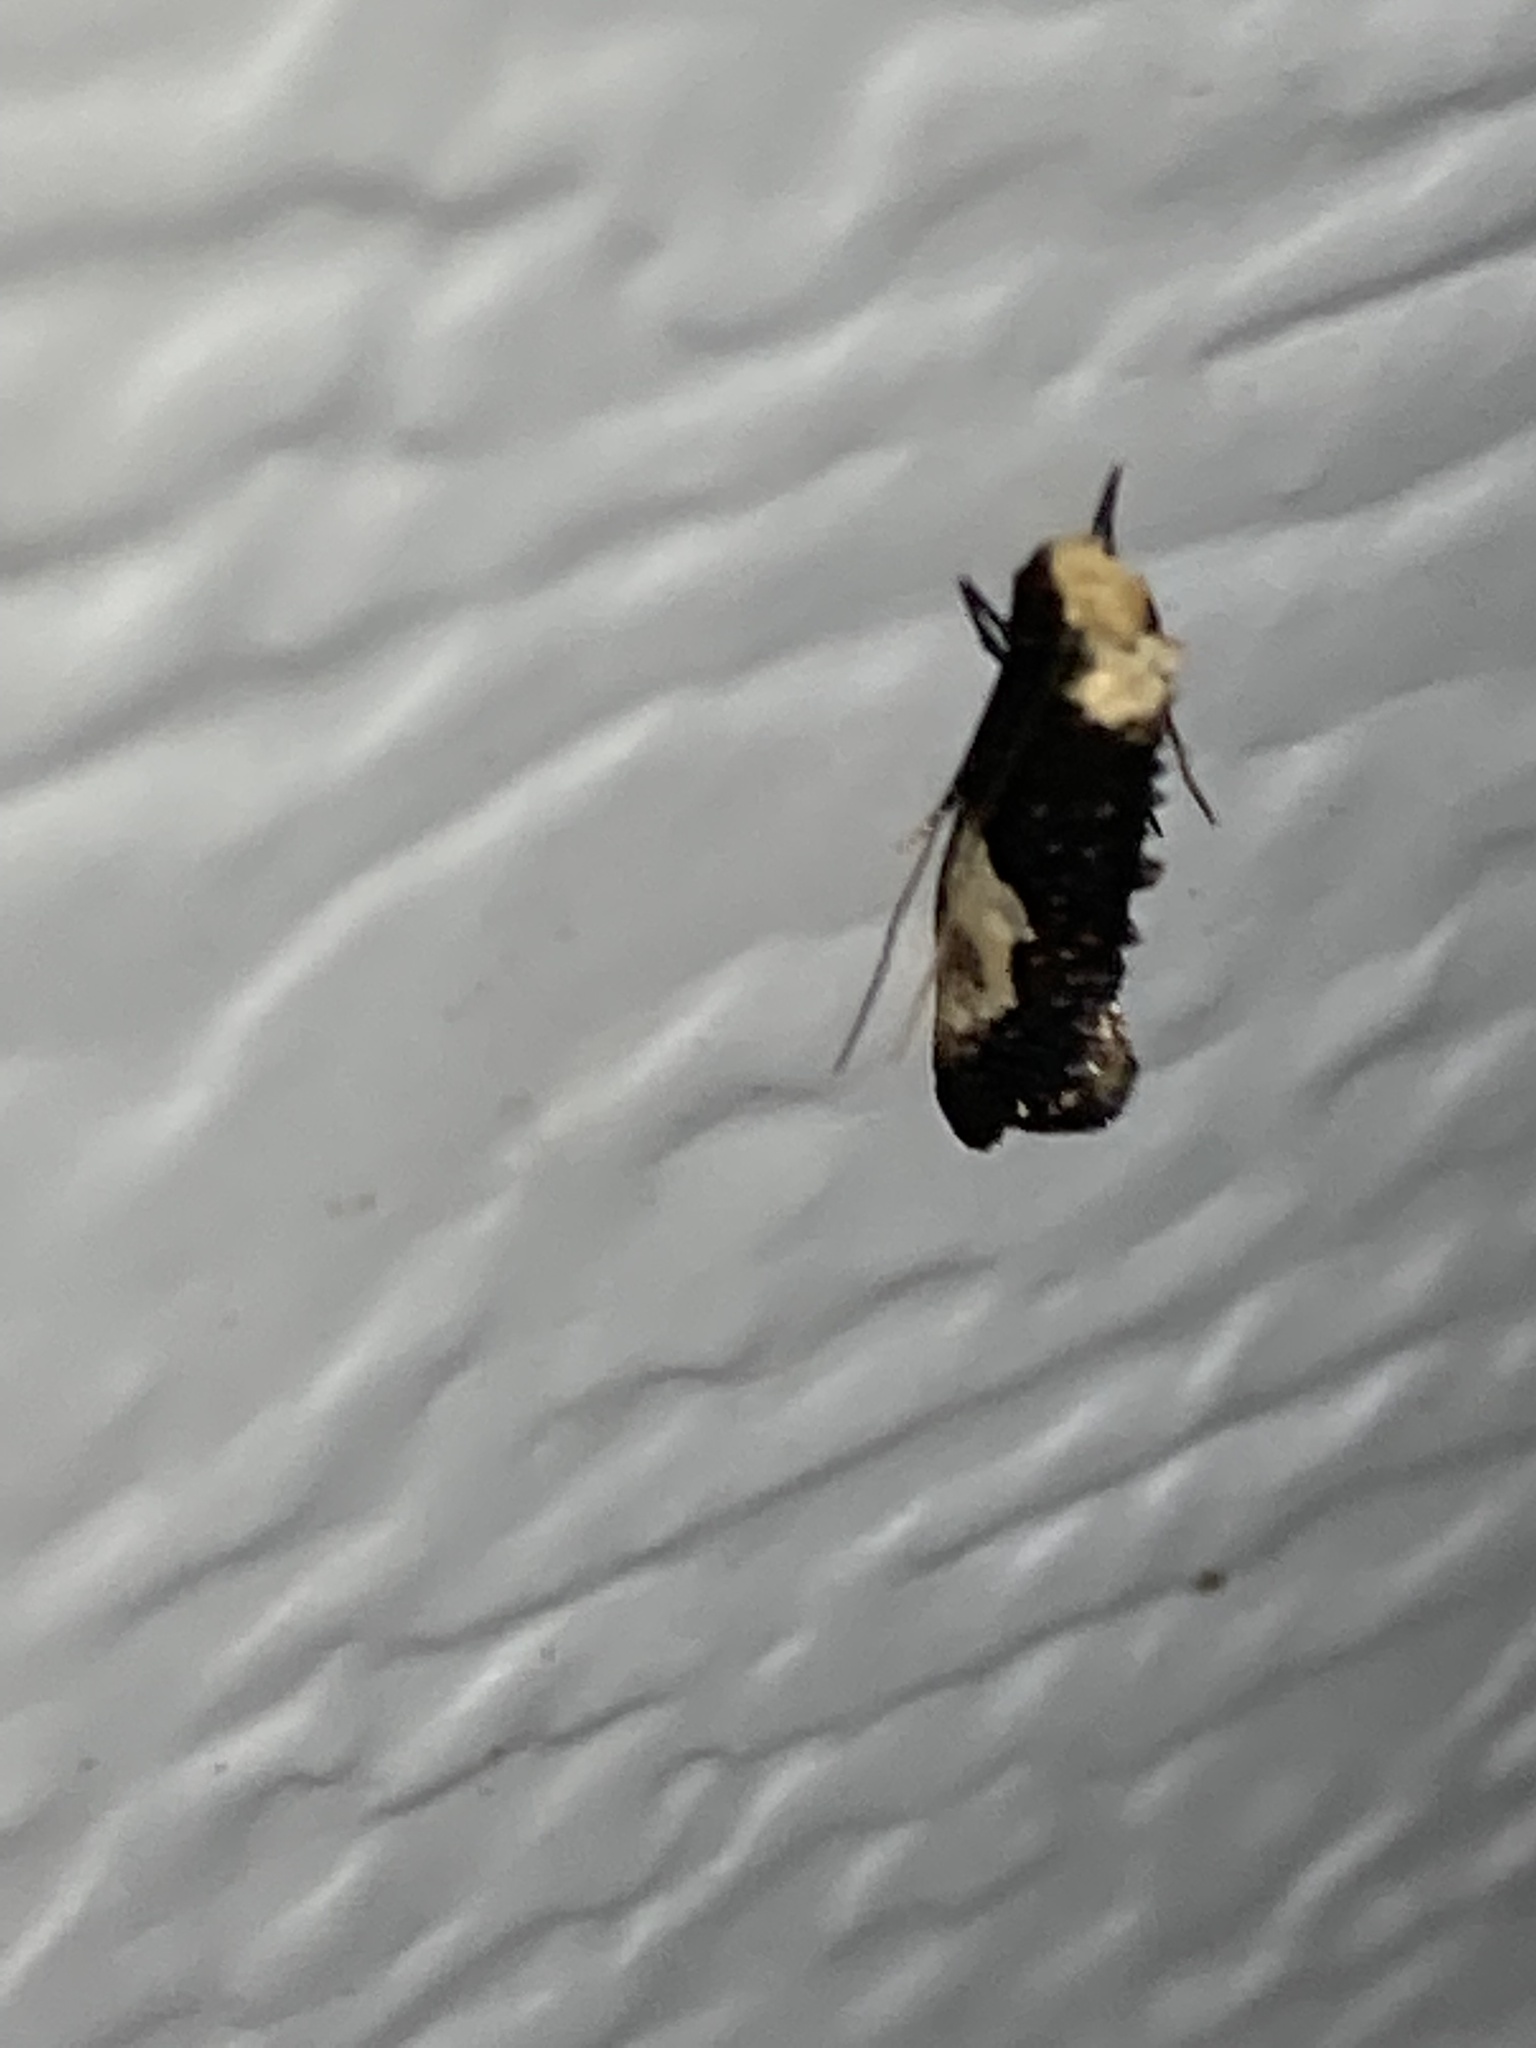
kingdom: Animalia
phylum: Arthropoda
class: Insecta
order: Lepidoptera
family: Tineidae
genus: Monopis
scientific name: Monopis longella
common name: Pavlovski's monopis moth
